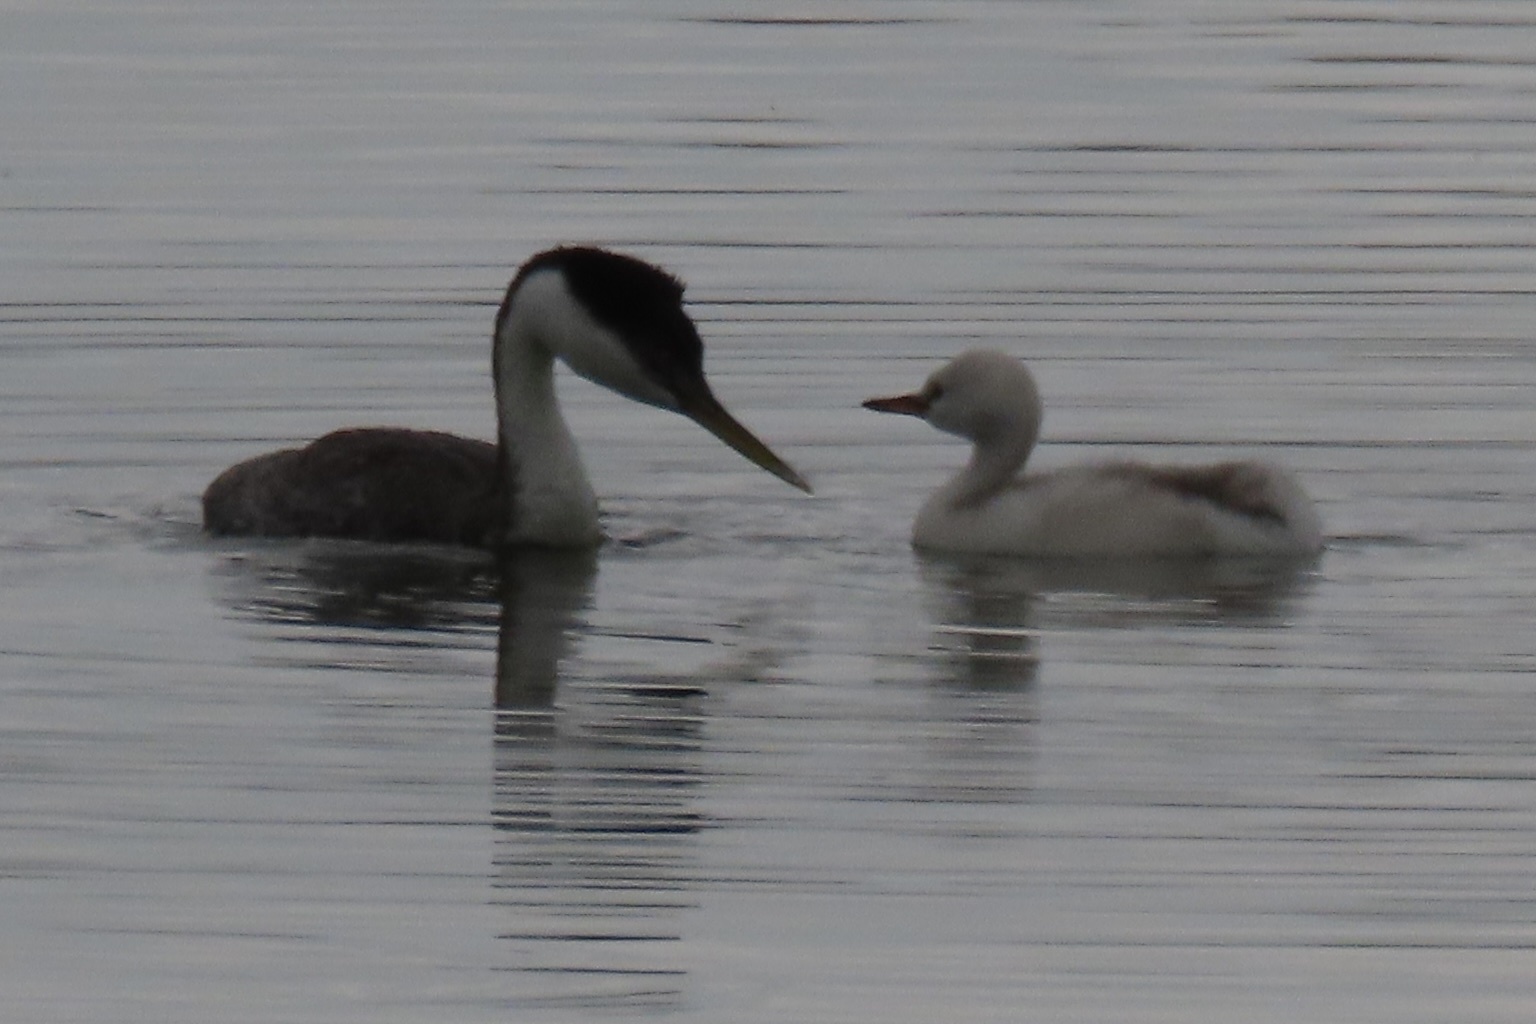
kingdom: Animalia
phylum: Chordata
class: Aves
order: Podicipediformes
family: Podicipedidae
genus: Aechmophorus
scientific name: Aechmophorus occidentalis
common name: Western grebe
